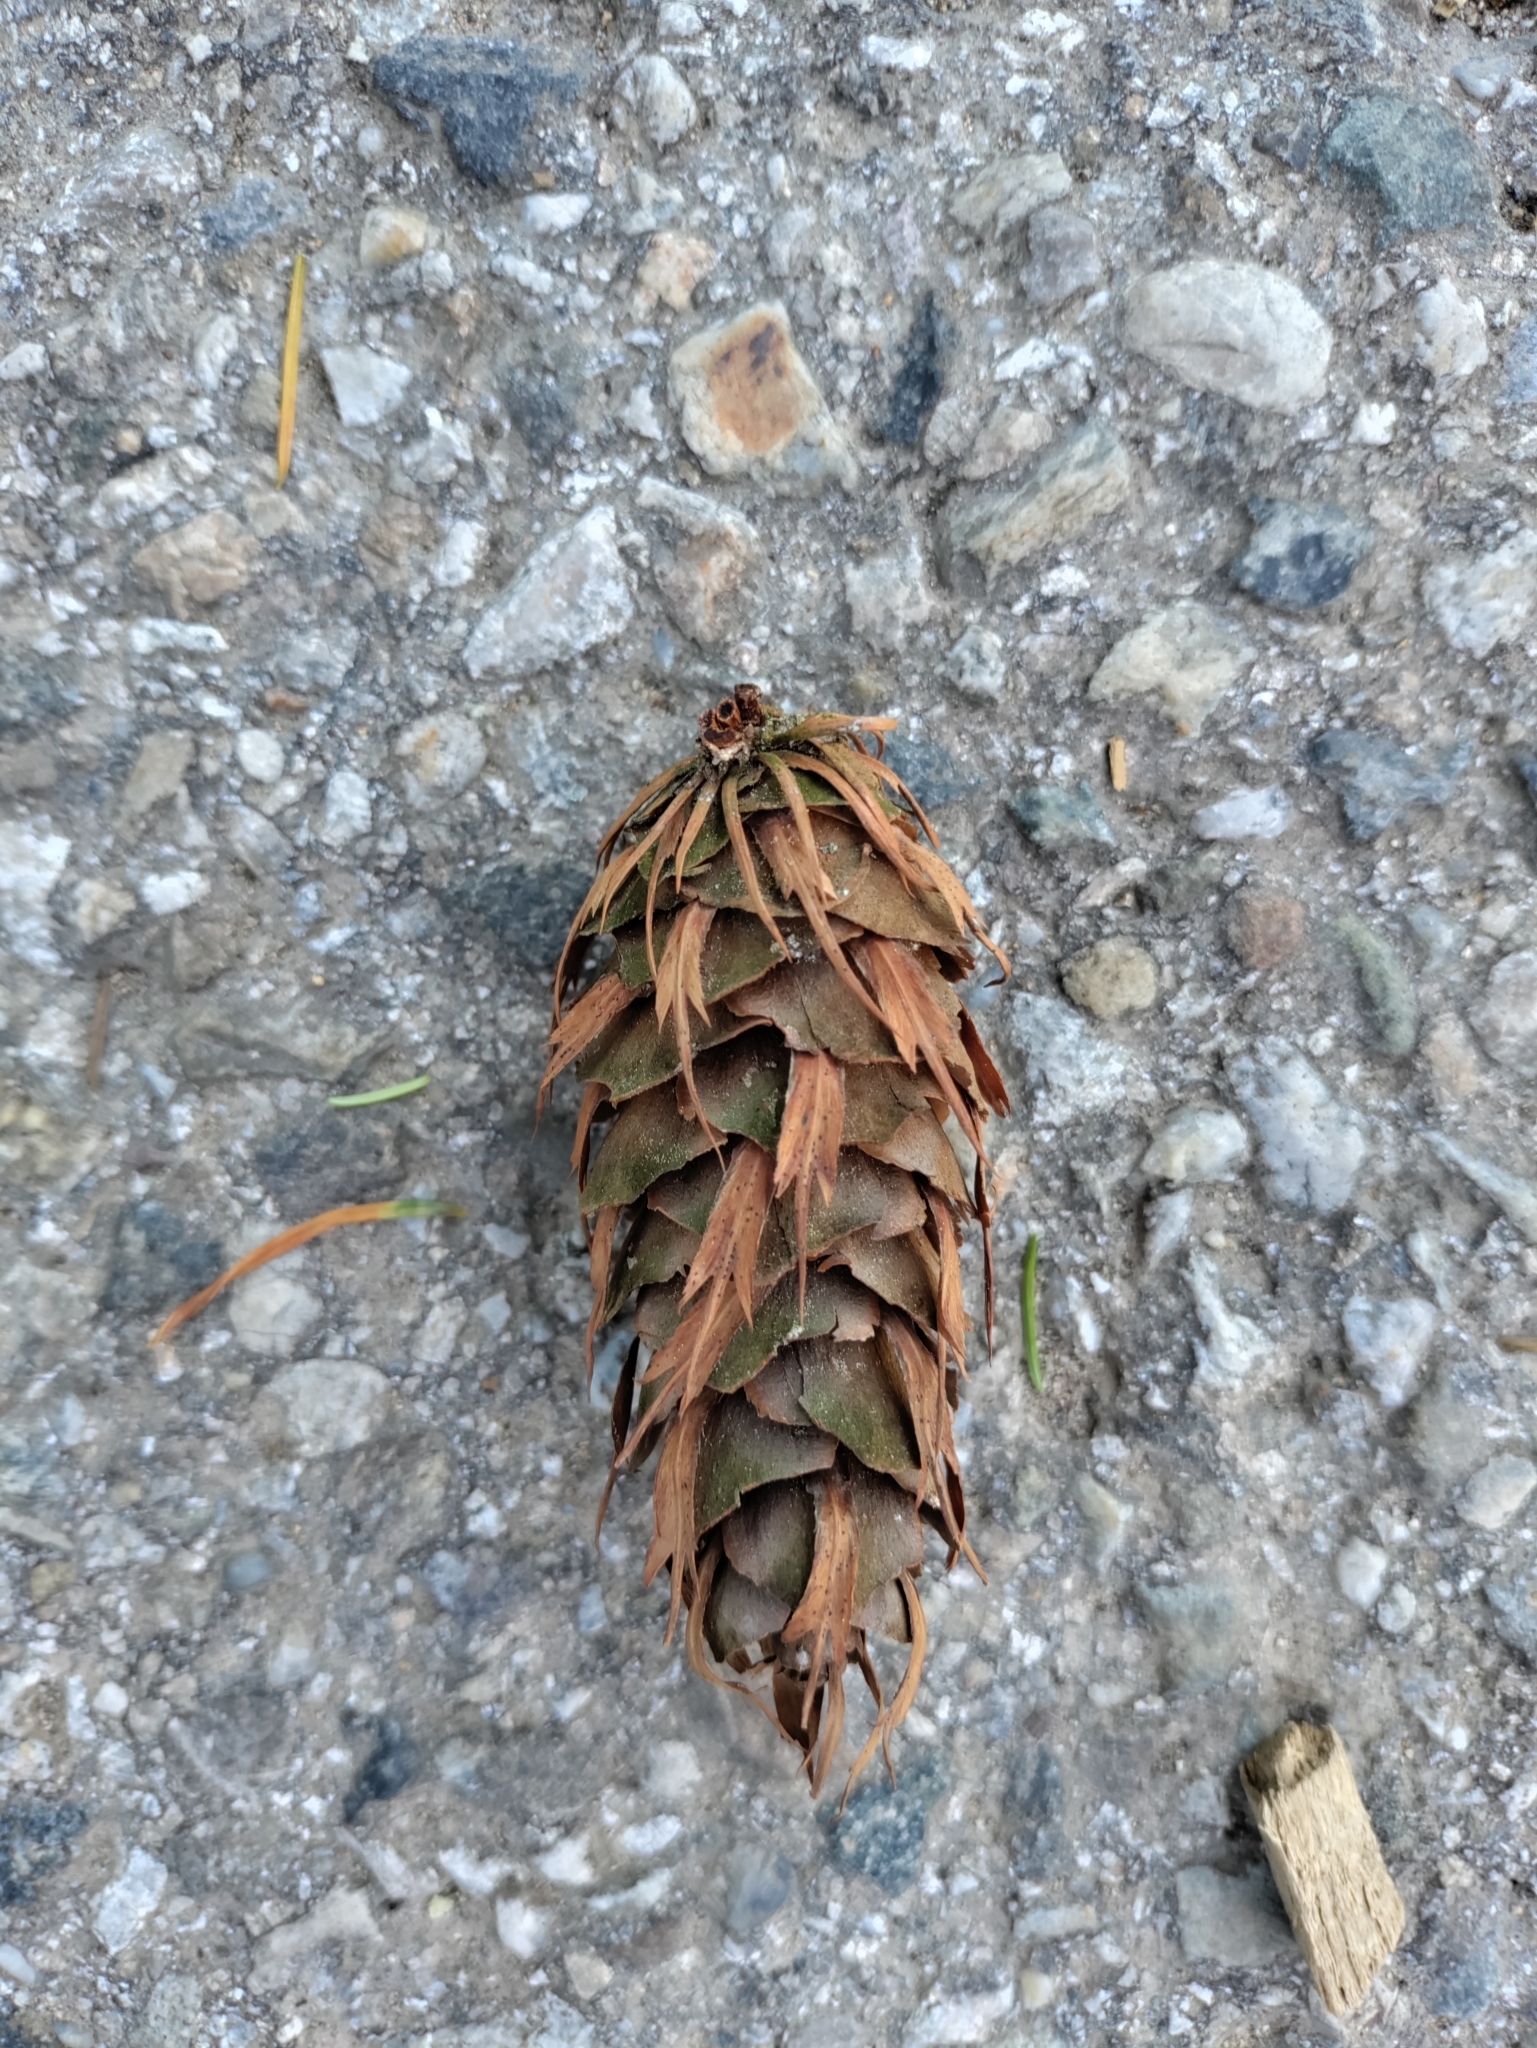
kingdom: Plantae
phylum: Tracheophyta
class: Pinopsida
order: Pinales
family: Pinaceae
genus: Pseudotsuga
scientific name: Pseudotsuga menziesii
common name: Douglas fir
